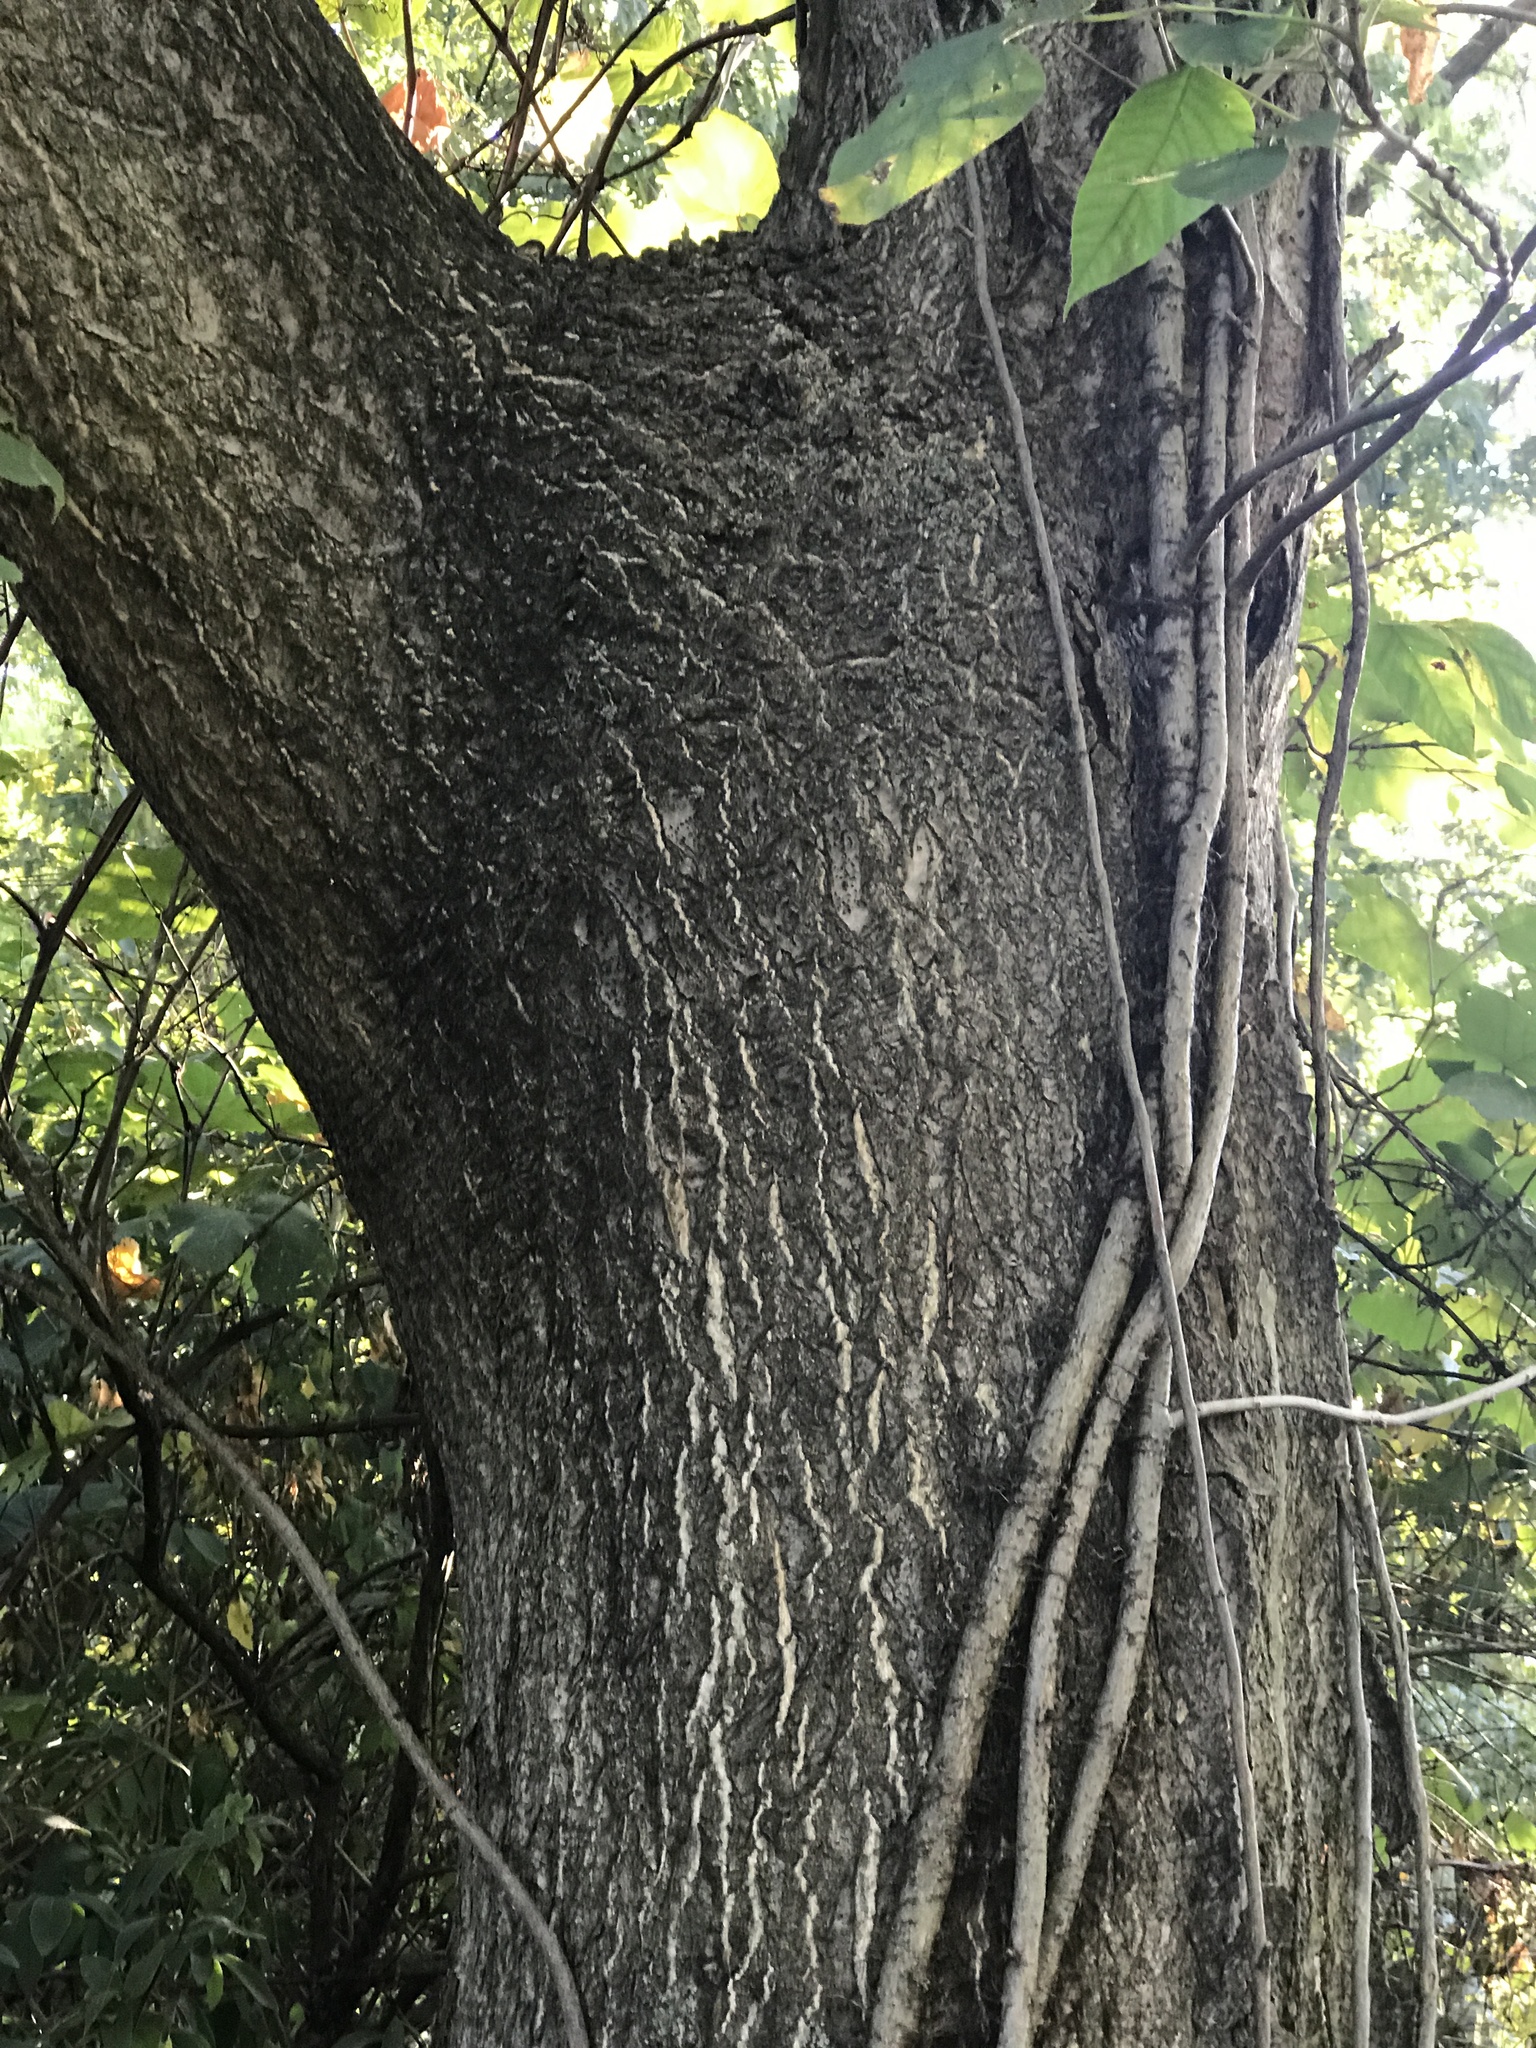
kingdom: Plantae
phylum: Tracheophyta
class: Magnoliopsida
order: Sapindales
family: Simaroubaceae
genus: Ailanthus
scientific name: Ailanthus altissima
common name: Tree-of-heaven
